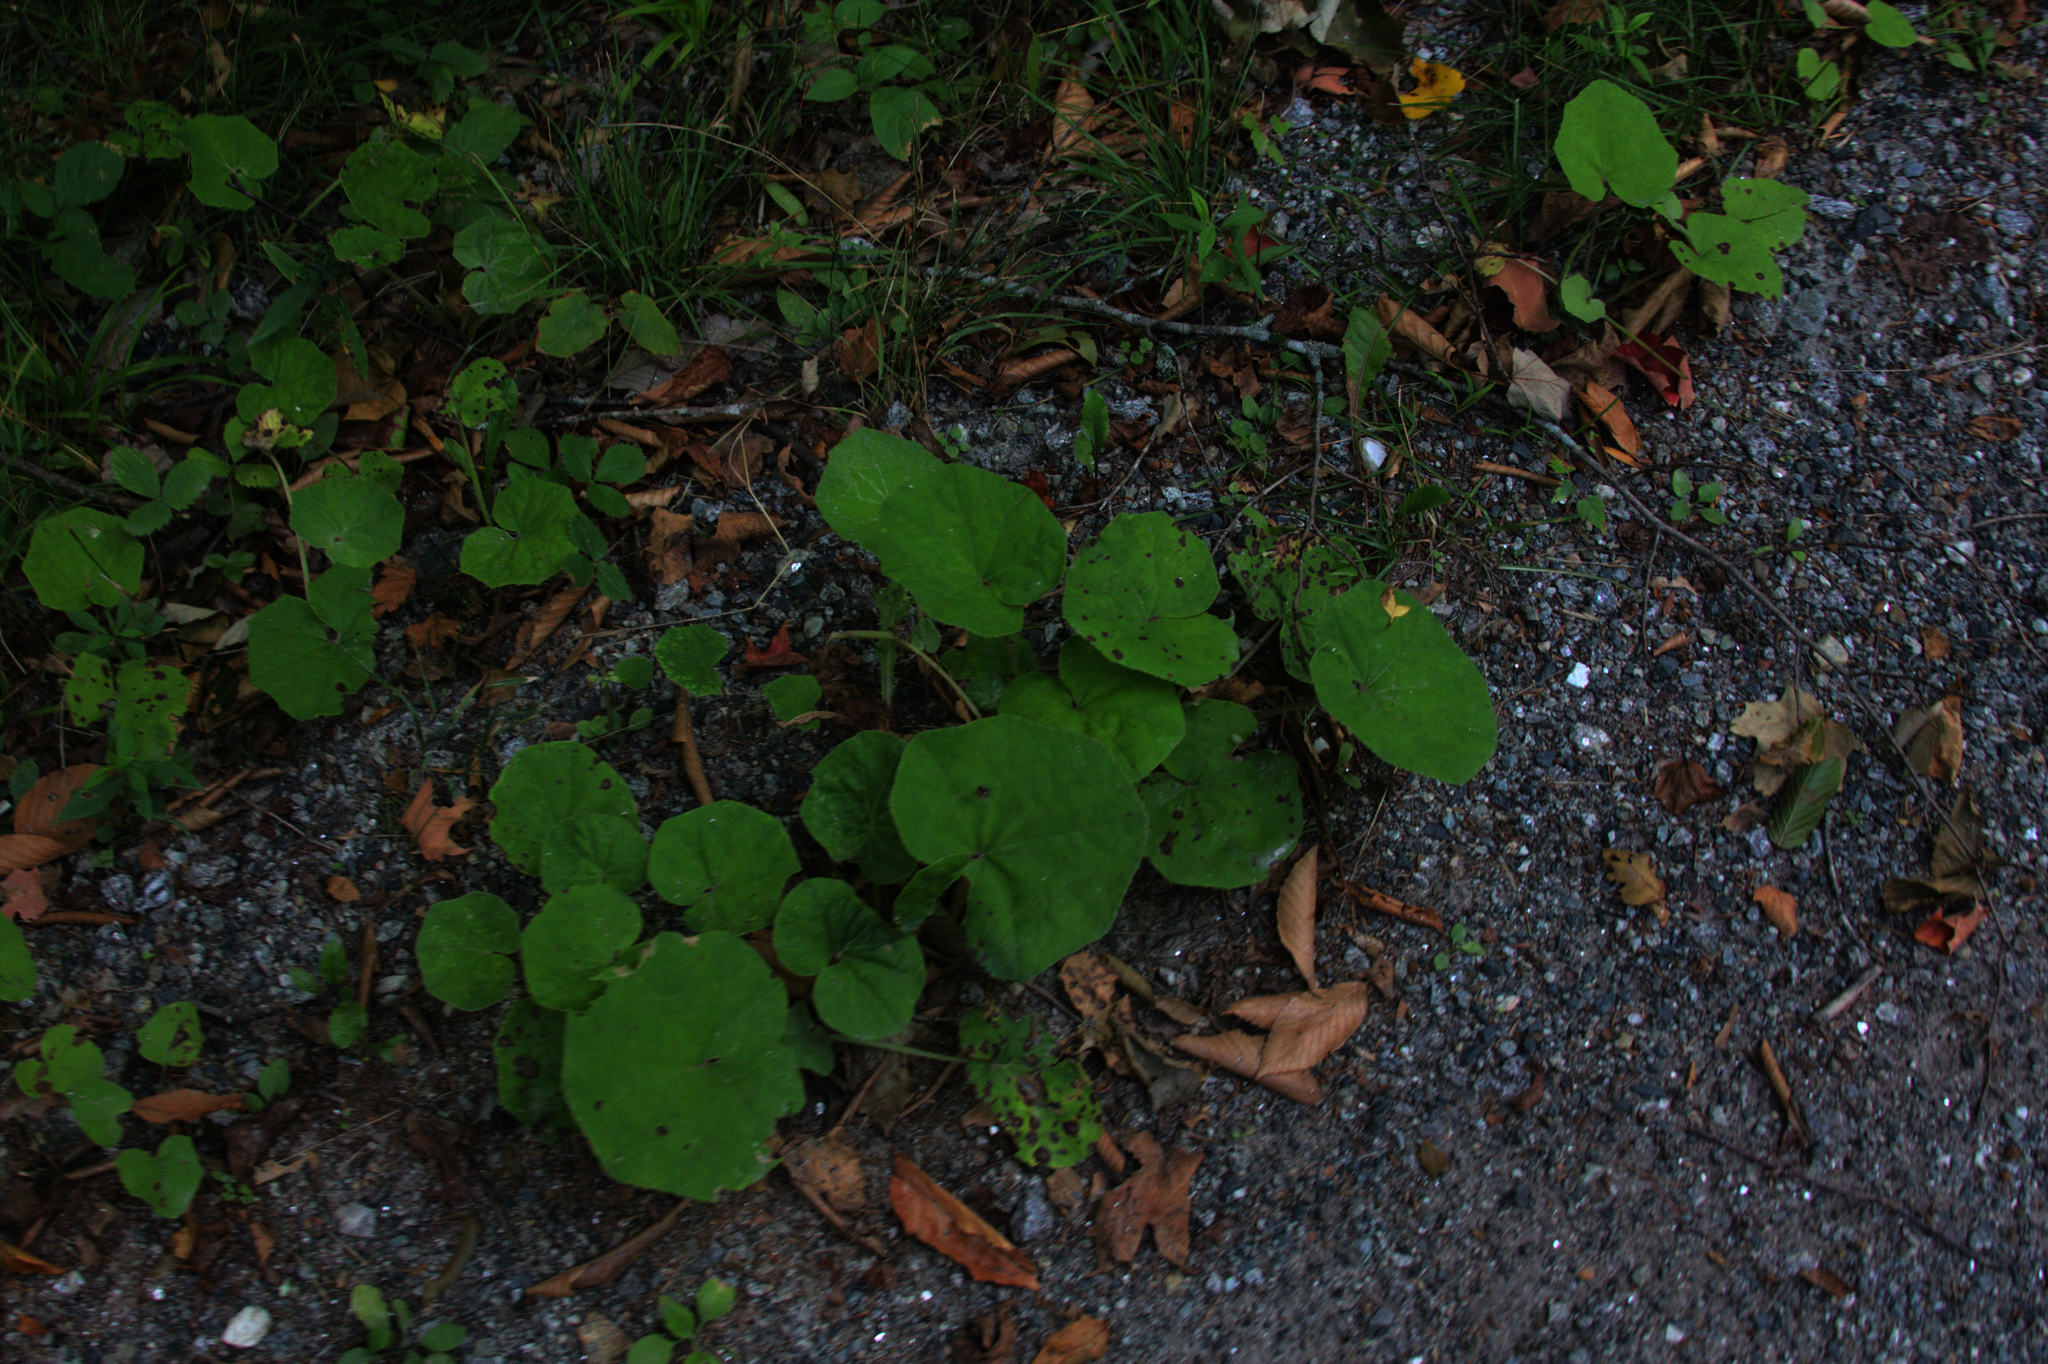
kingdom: Plantae
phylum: Tracheophyta
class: Magnoliopsida
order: Asterales
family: Asteraceae
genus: Tussilago
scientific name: Tussilago farfara
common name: Coltsfoot
